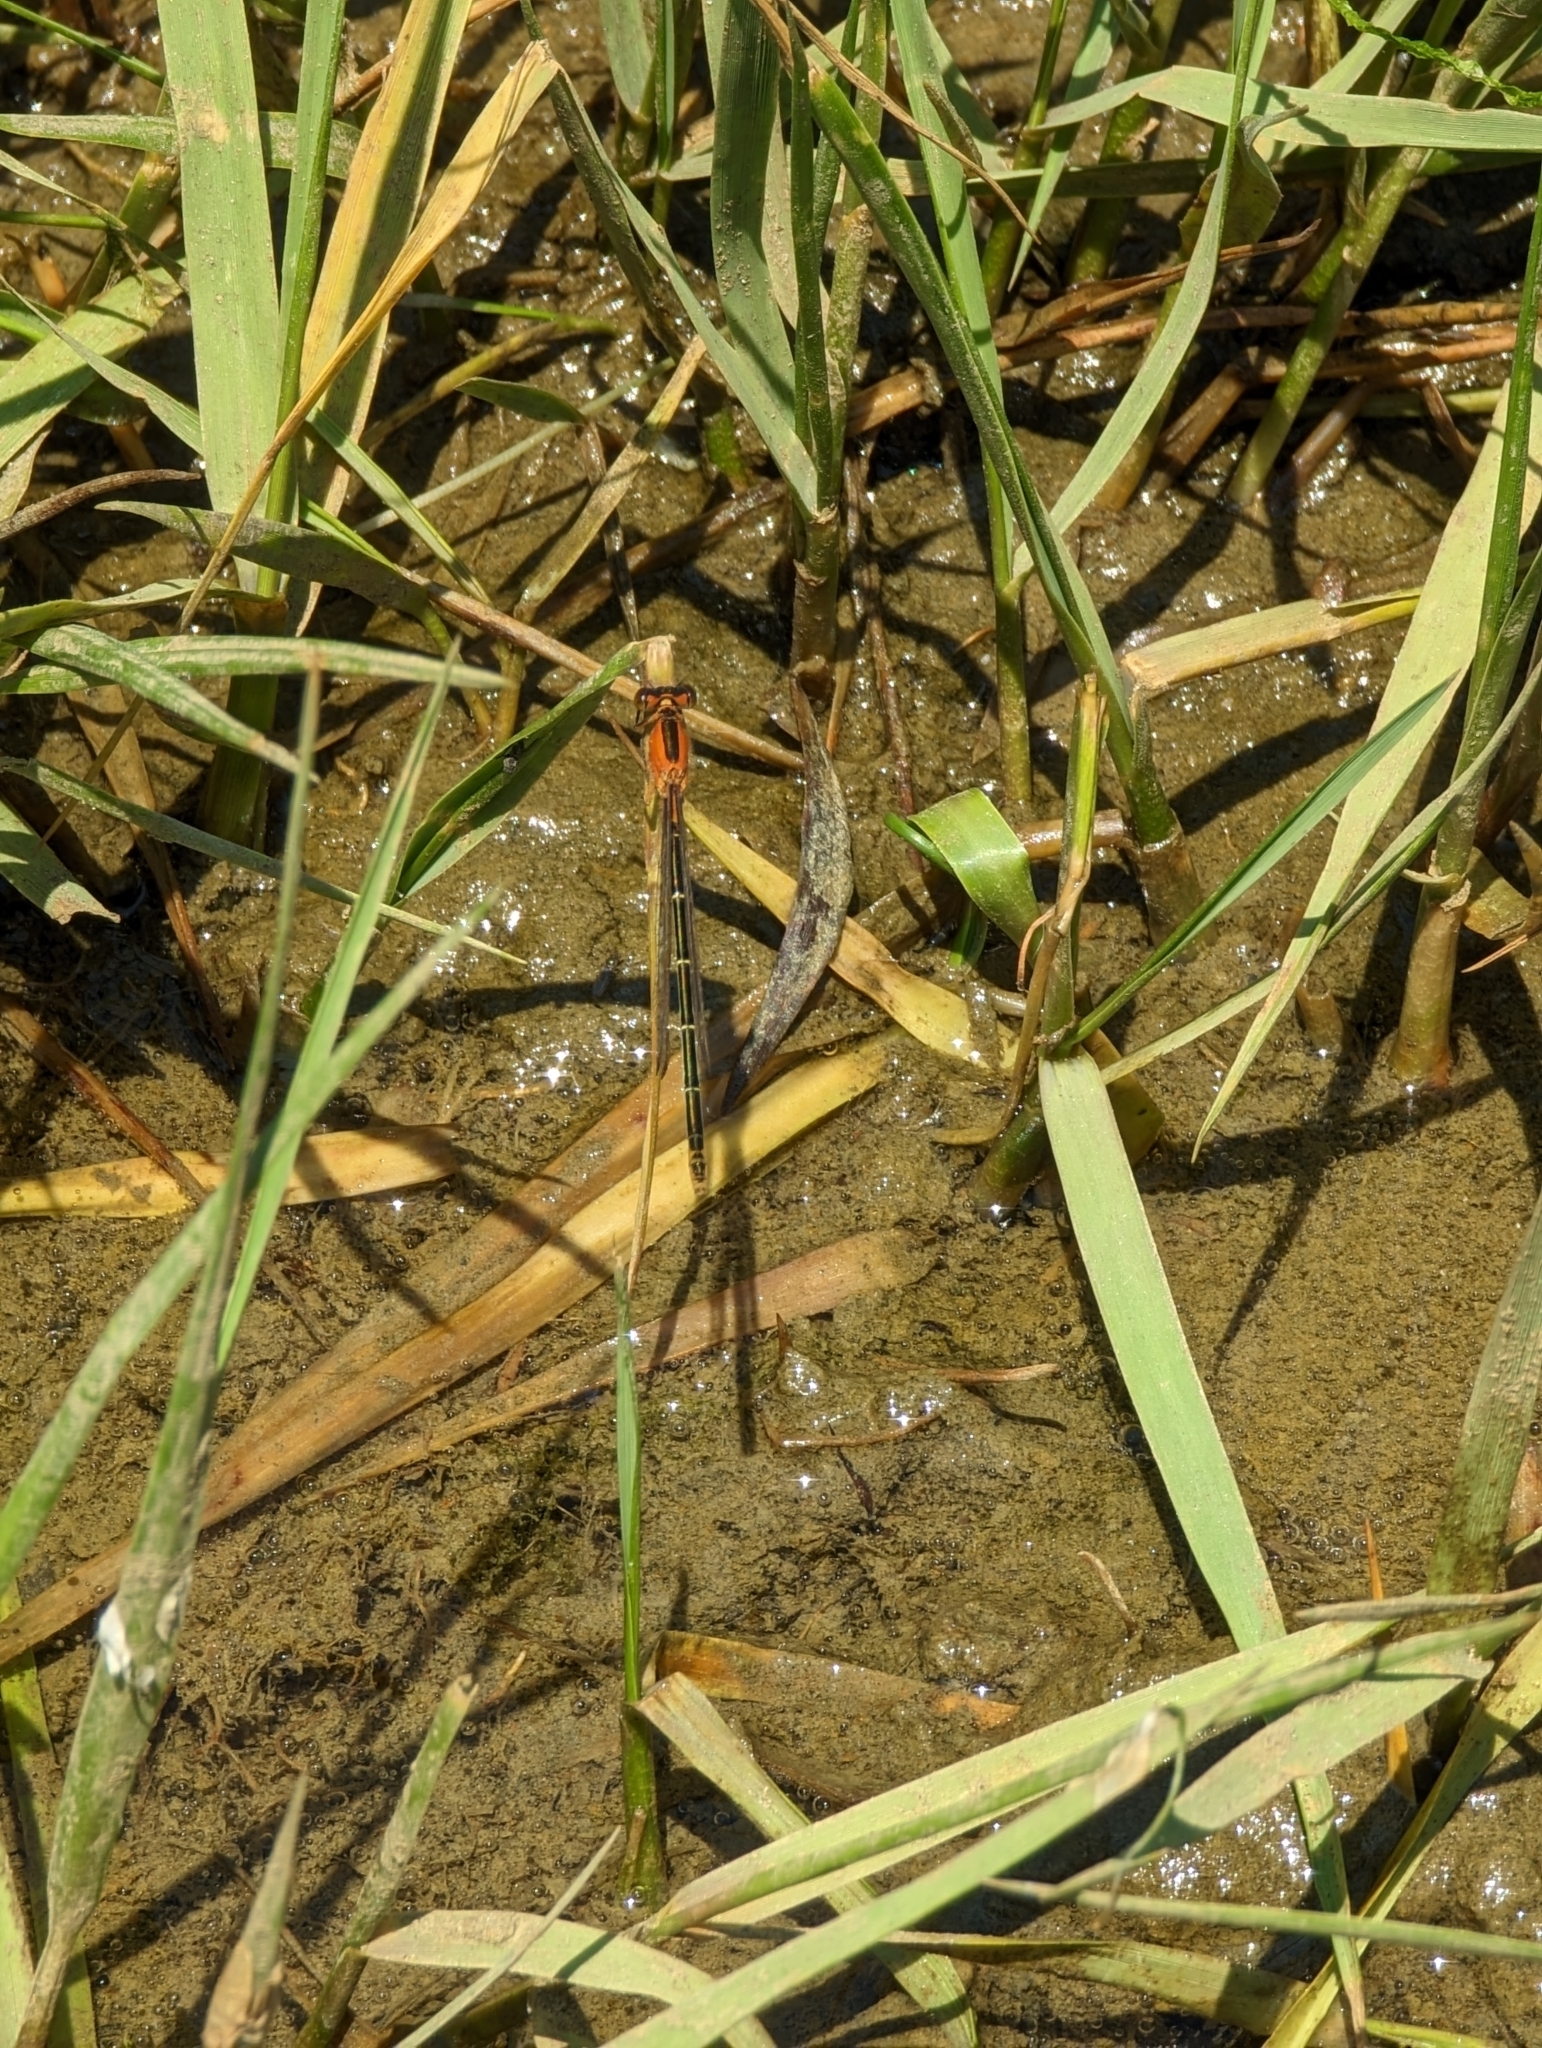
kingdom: Animalia
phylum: Arthropoda
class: Insecta
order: Odonata
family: Coenagrionidae
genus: Ischnura
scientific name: Ischnura ramburii
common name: Rambur's forktail
